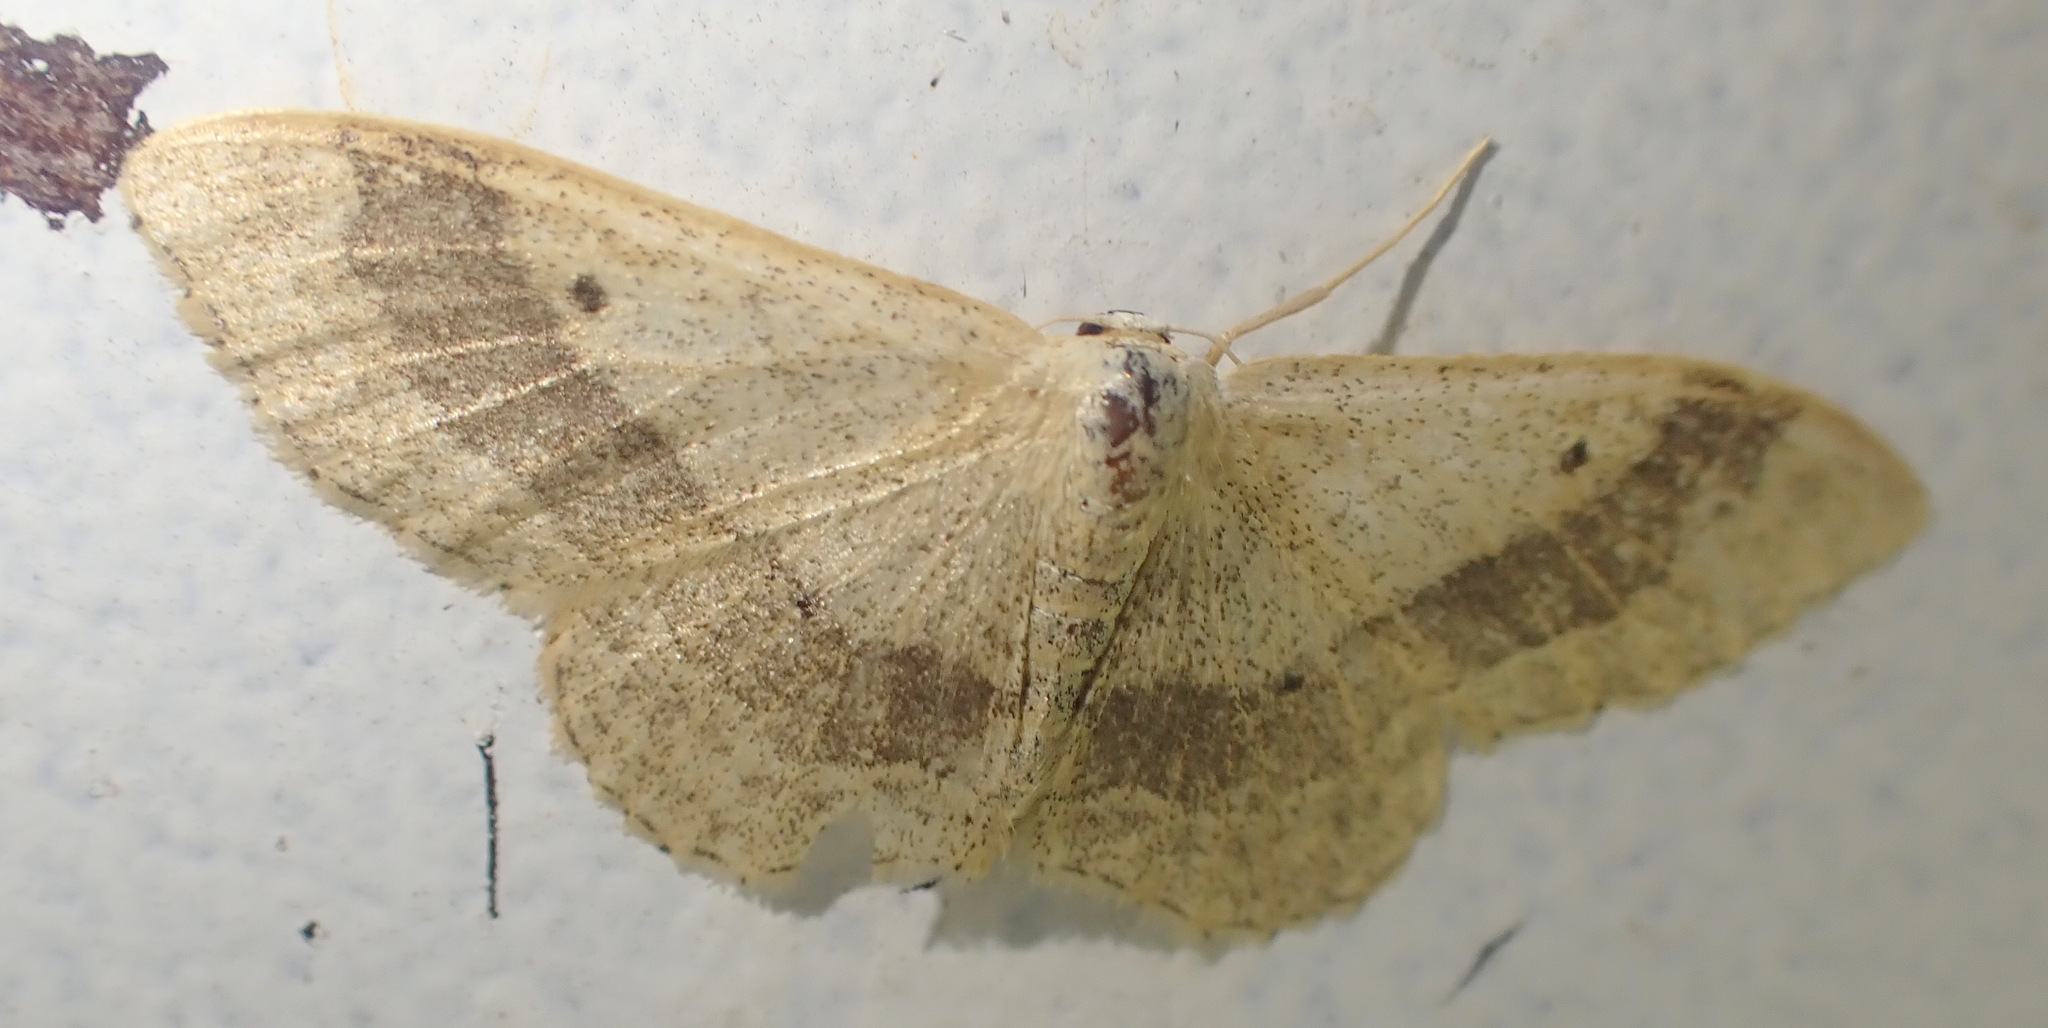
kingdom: Animalia
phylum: Arthropoda
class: Insecta
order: Lepidoptera
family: Geometridae
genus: Idaea
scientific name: Idaea aversata
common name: Riband wave
